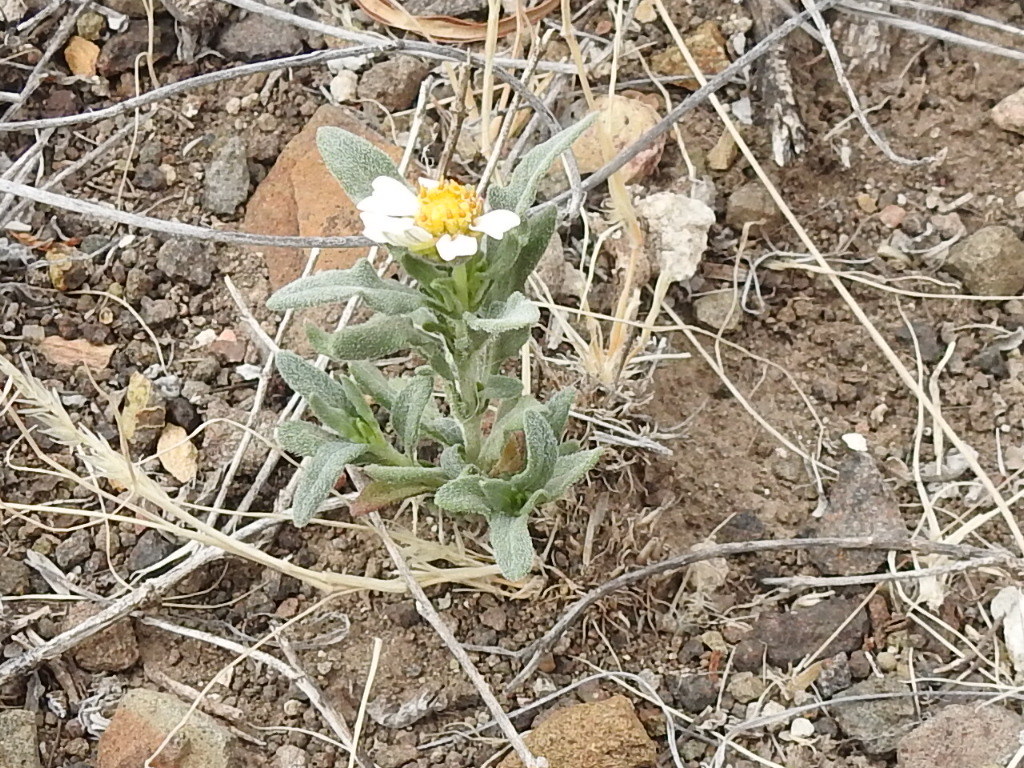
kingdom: Plantae
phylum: Tracheophyta
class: Magnoliopsida
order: Asterales
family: Asteraceae
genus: Melampodium
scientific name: Melampodium leucanthum
